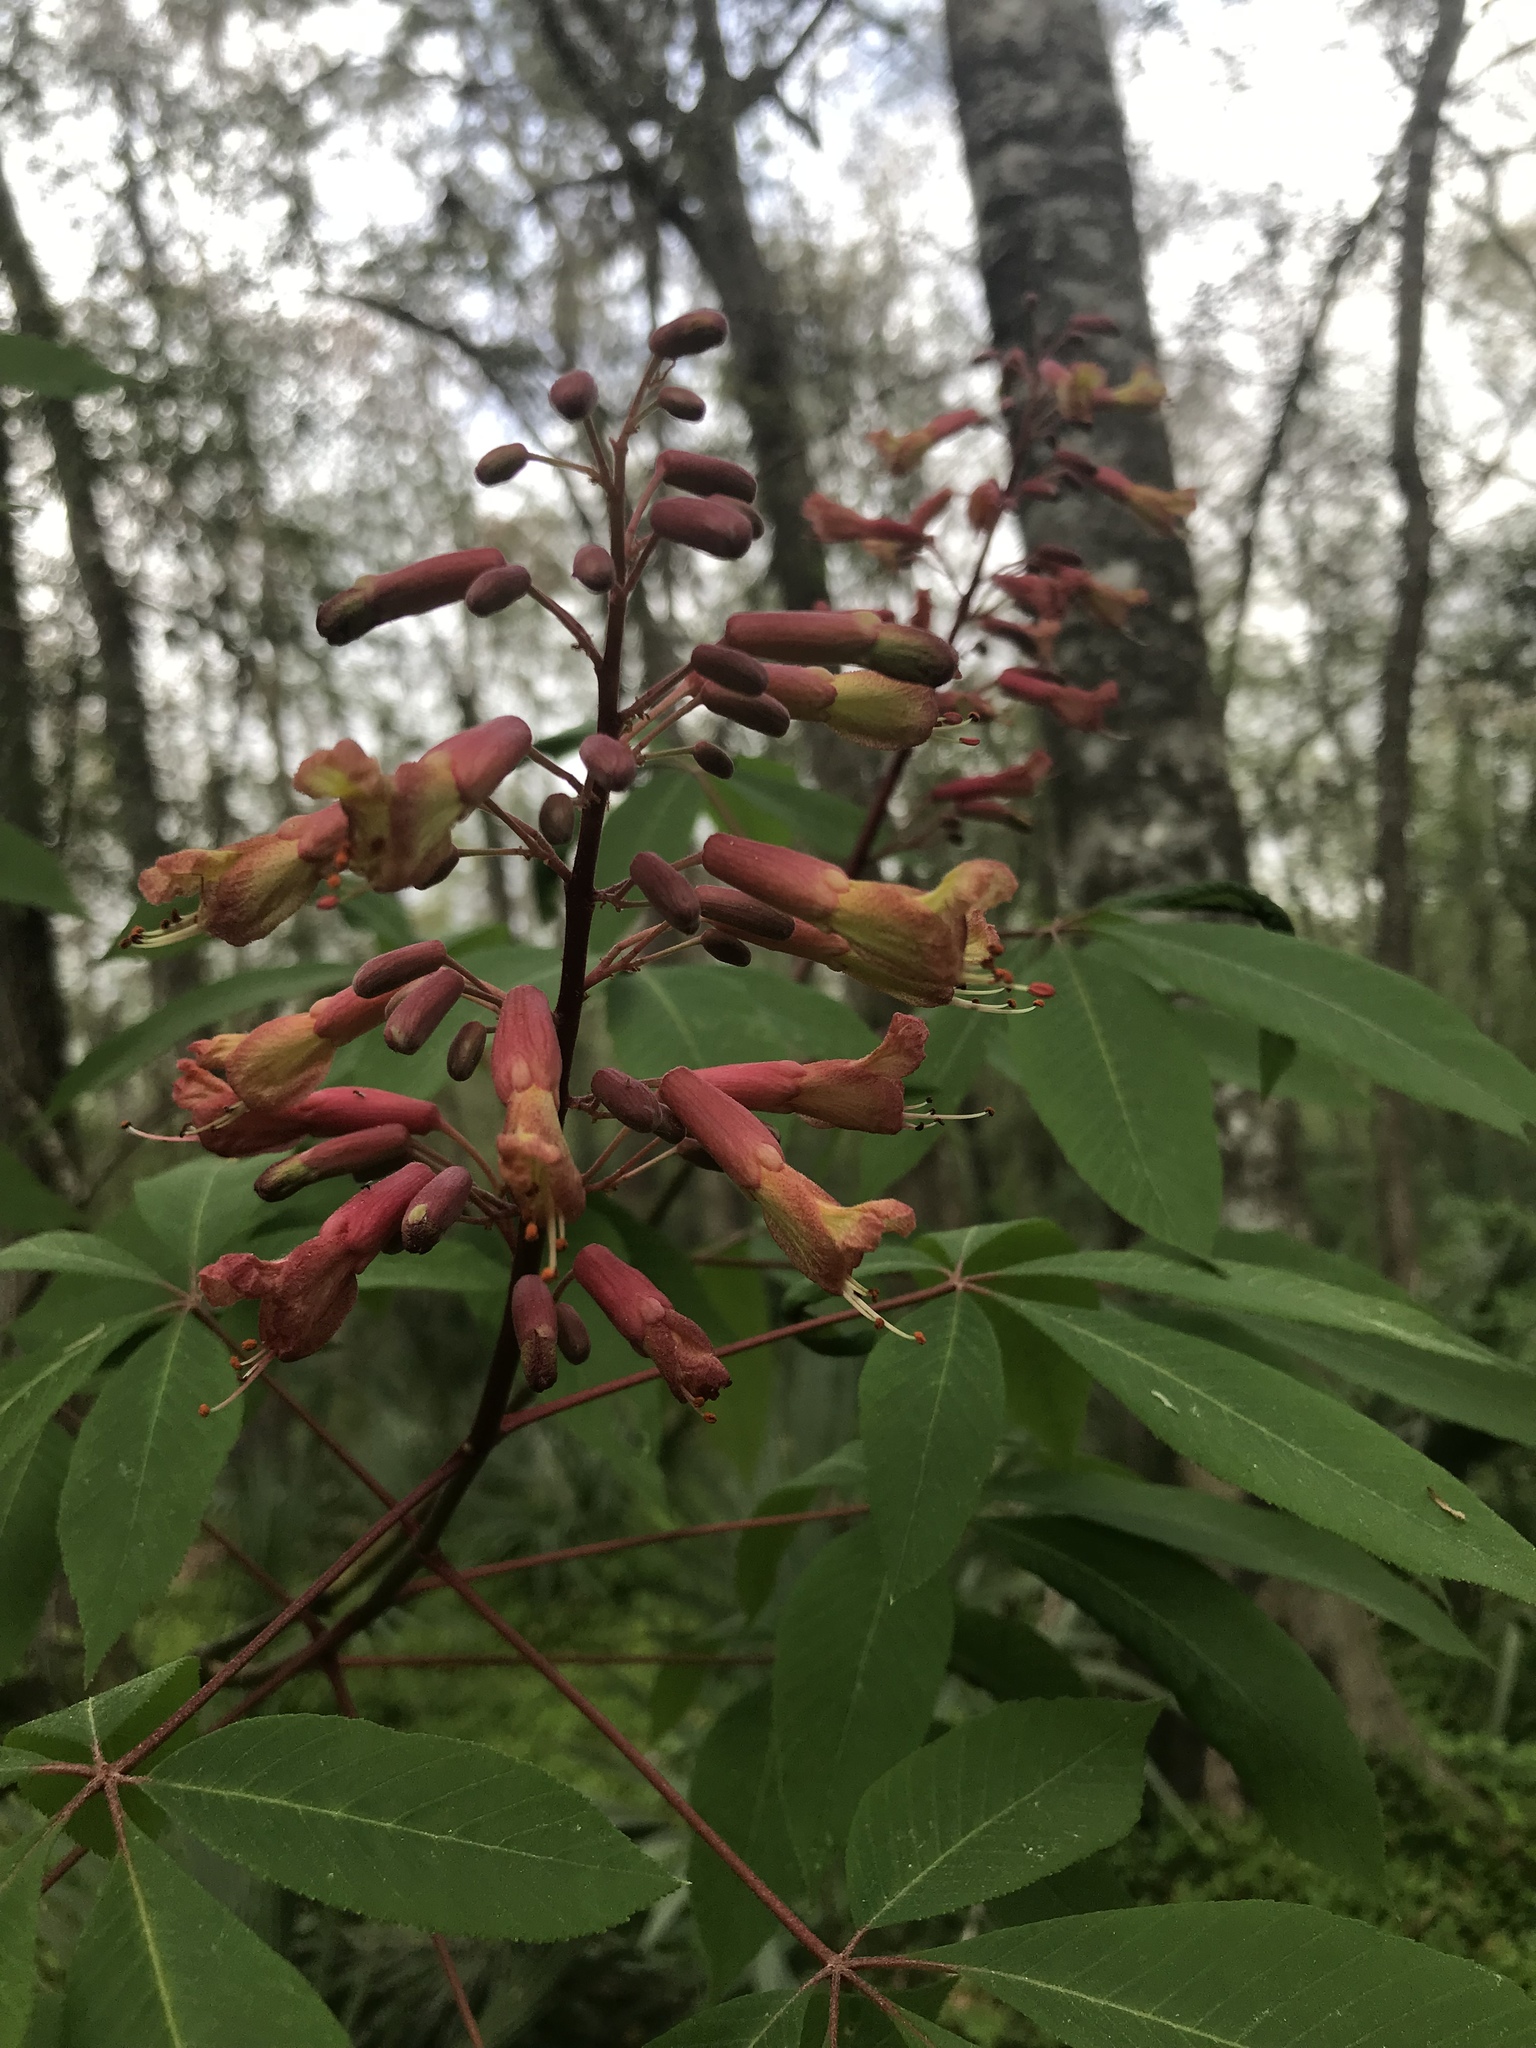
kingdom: Plantae
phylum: Tracheophyta
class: Magnoliopsida
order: Sapindales
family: Sapindaceae
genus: Aesculus
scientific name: Aesculus pavia
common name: Red buckeye
